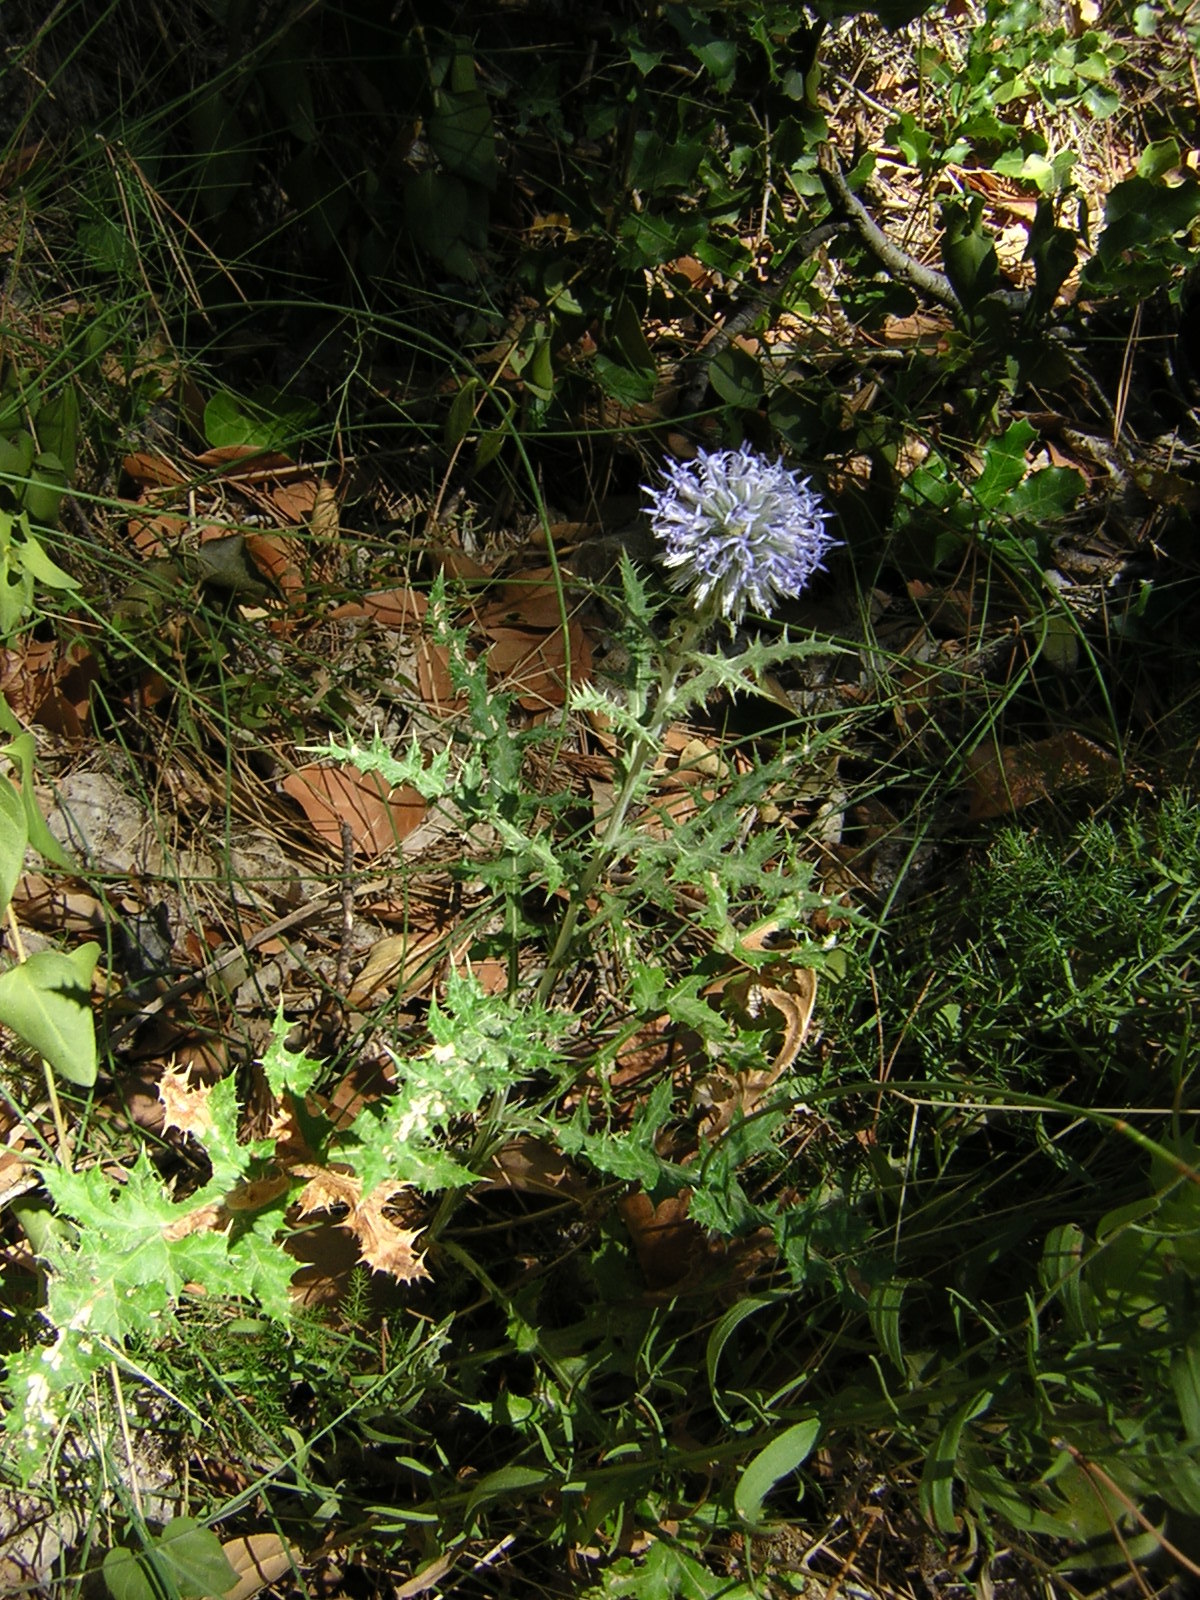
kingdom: Plantae
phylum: Tracheophyta
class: Magnoliopsida
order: Asterales
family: Asteraceae
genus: Echinops
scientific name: Echinops ritro
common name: Globe thistle
